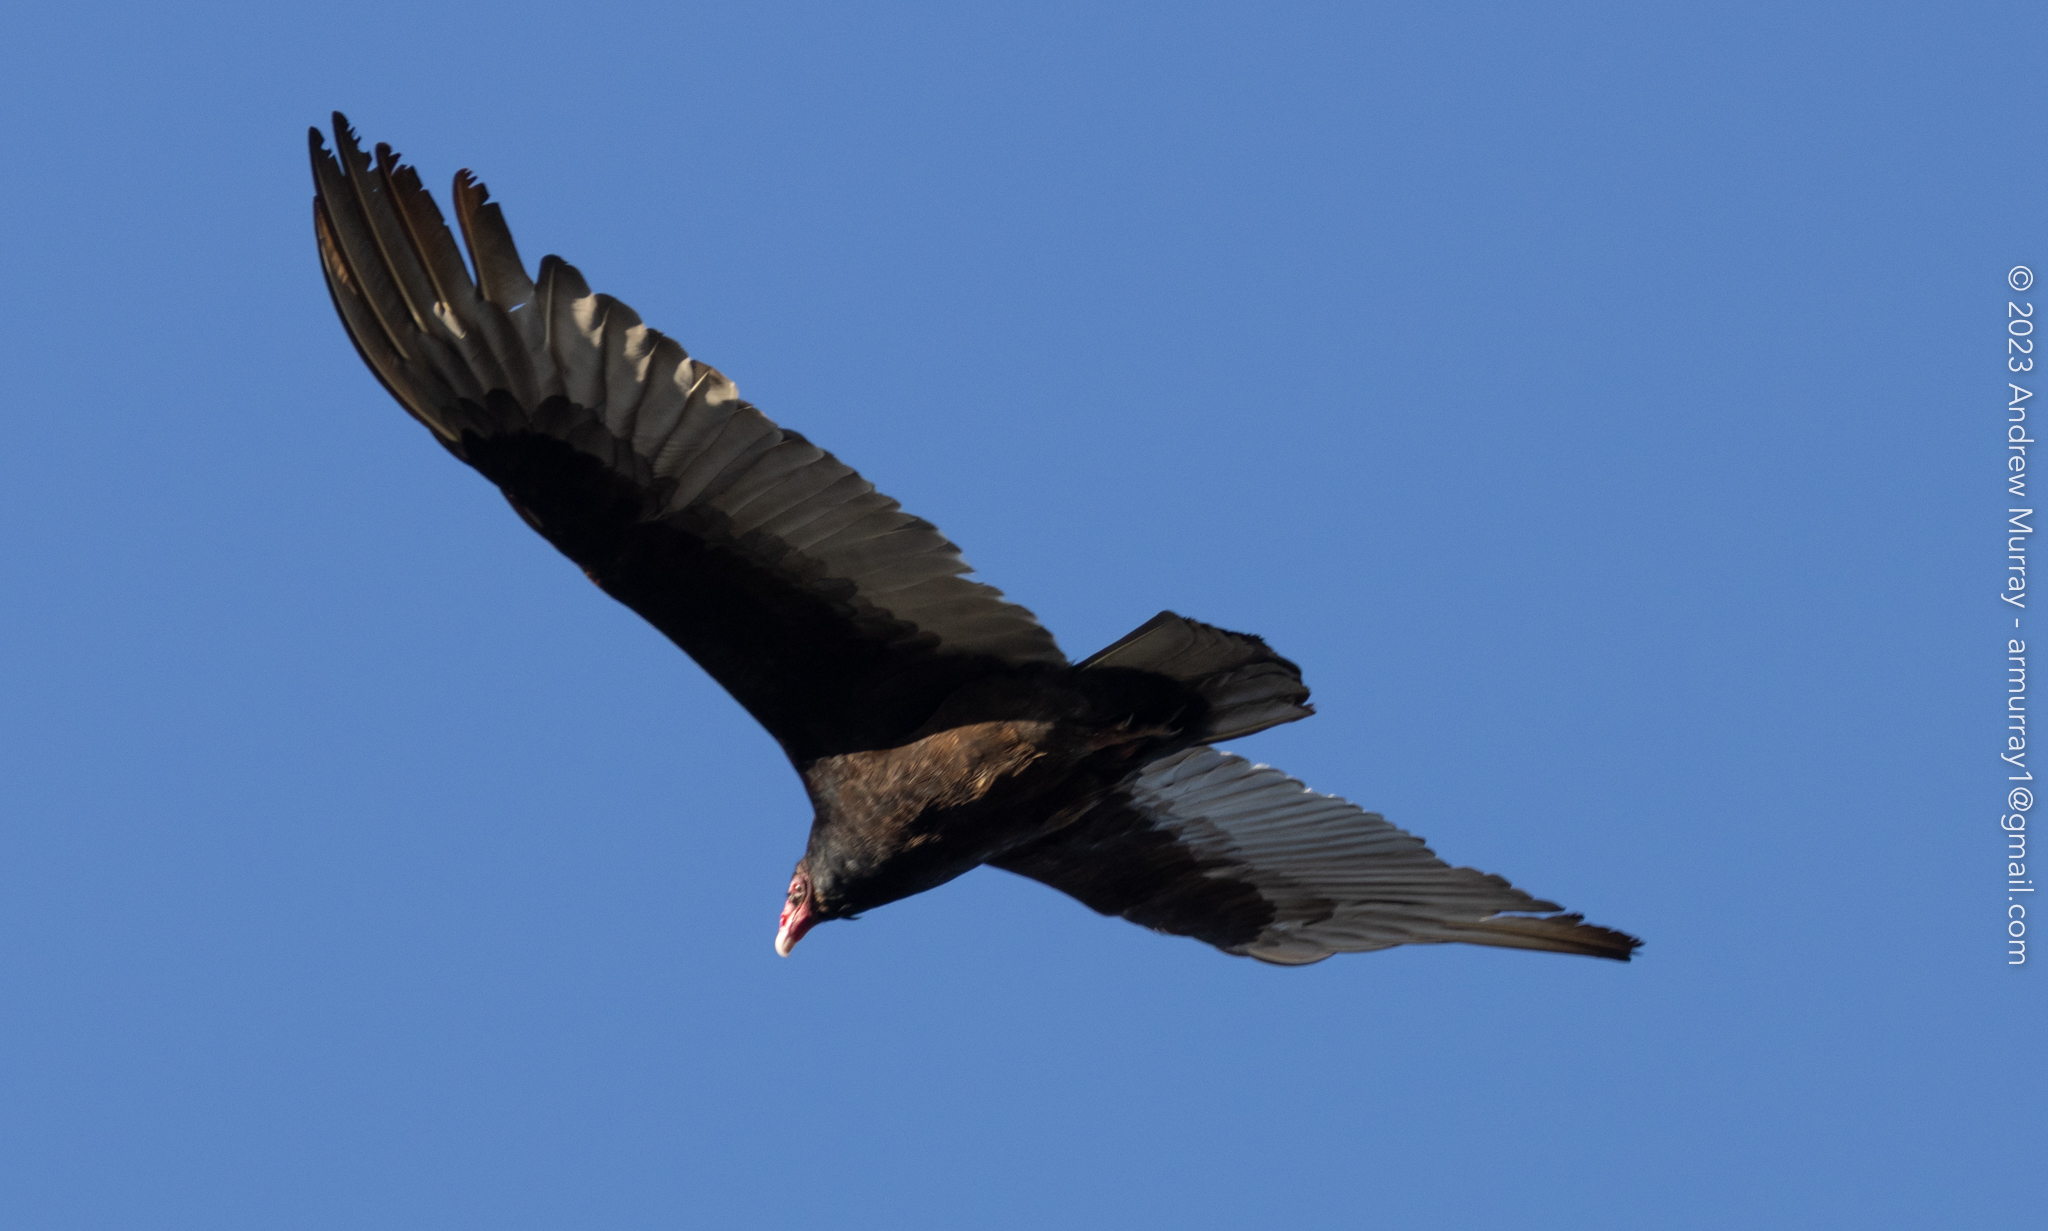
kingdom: Animalia
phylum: Chordata
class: Aves
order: Accipitriformes
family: Cathartidae
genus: Cathartes
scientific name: Cathartes aura
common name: Turkey vulture
